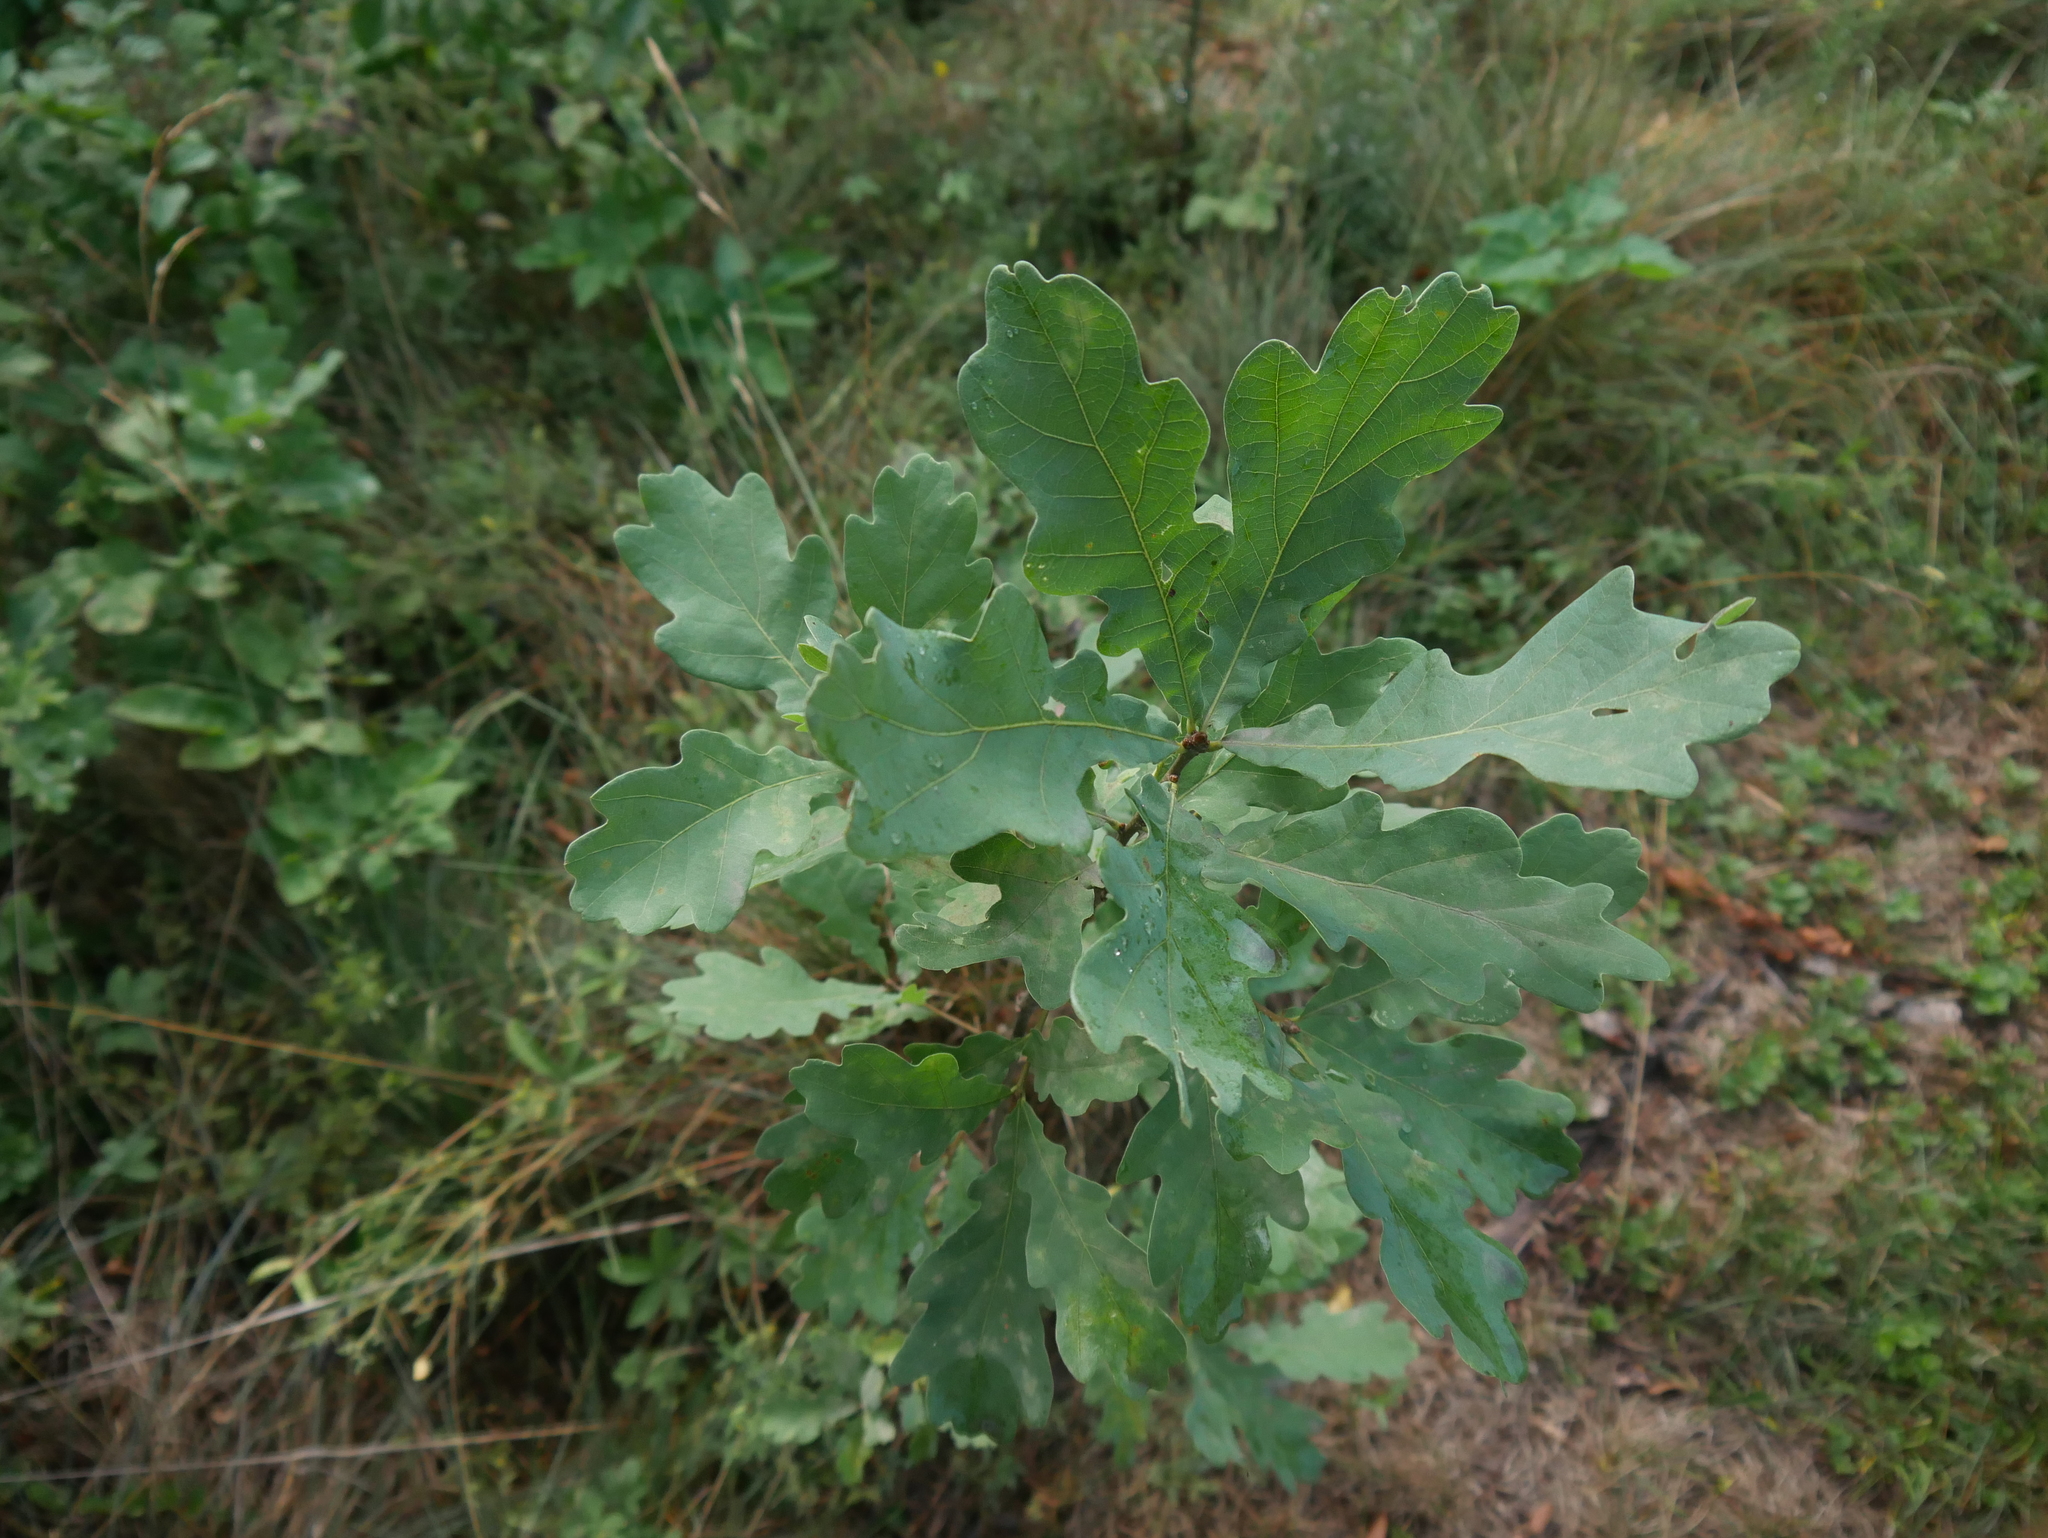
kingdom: Plantae
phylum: Tracheophyta
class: Magnoliopsida
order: Fagales
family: Fagaceae
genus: Quercus
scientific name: Quercus robur
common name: Pedunculate oak
